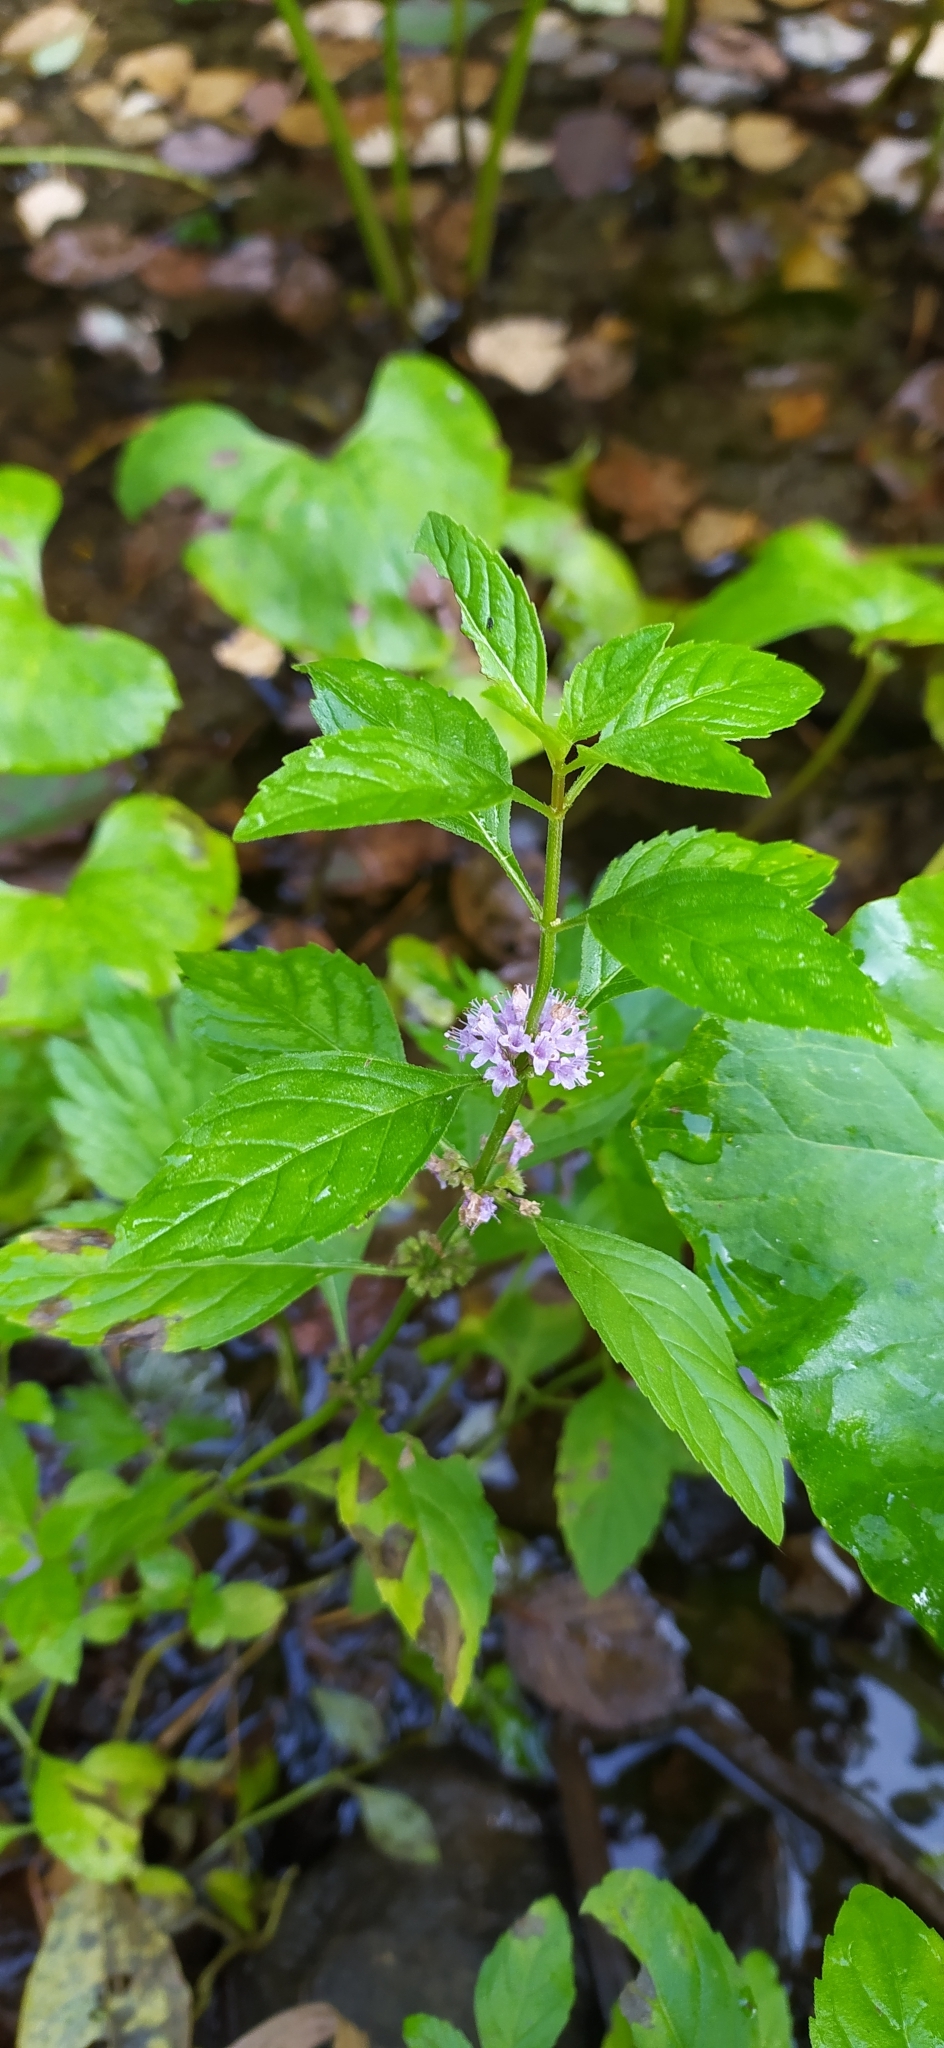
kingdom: Plantae
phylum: Tracheophyta
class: Magnoliopsida
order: Lamiales
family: Lamiaceae
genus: Mentha
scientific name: Mentha arvensis
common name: Corn mint
